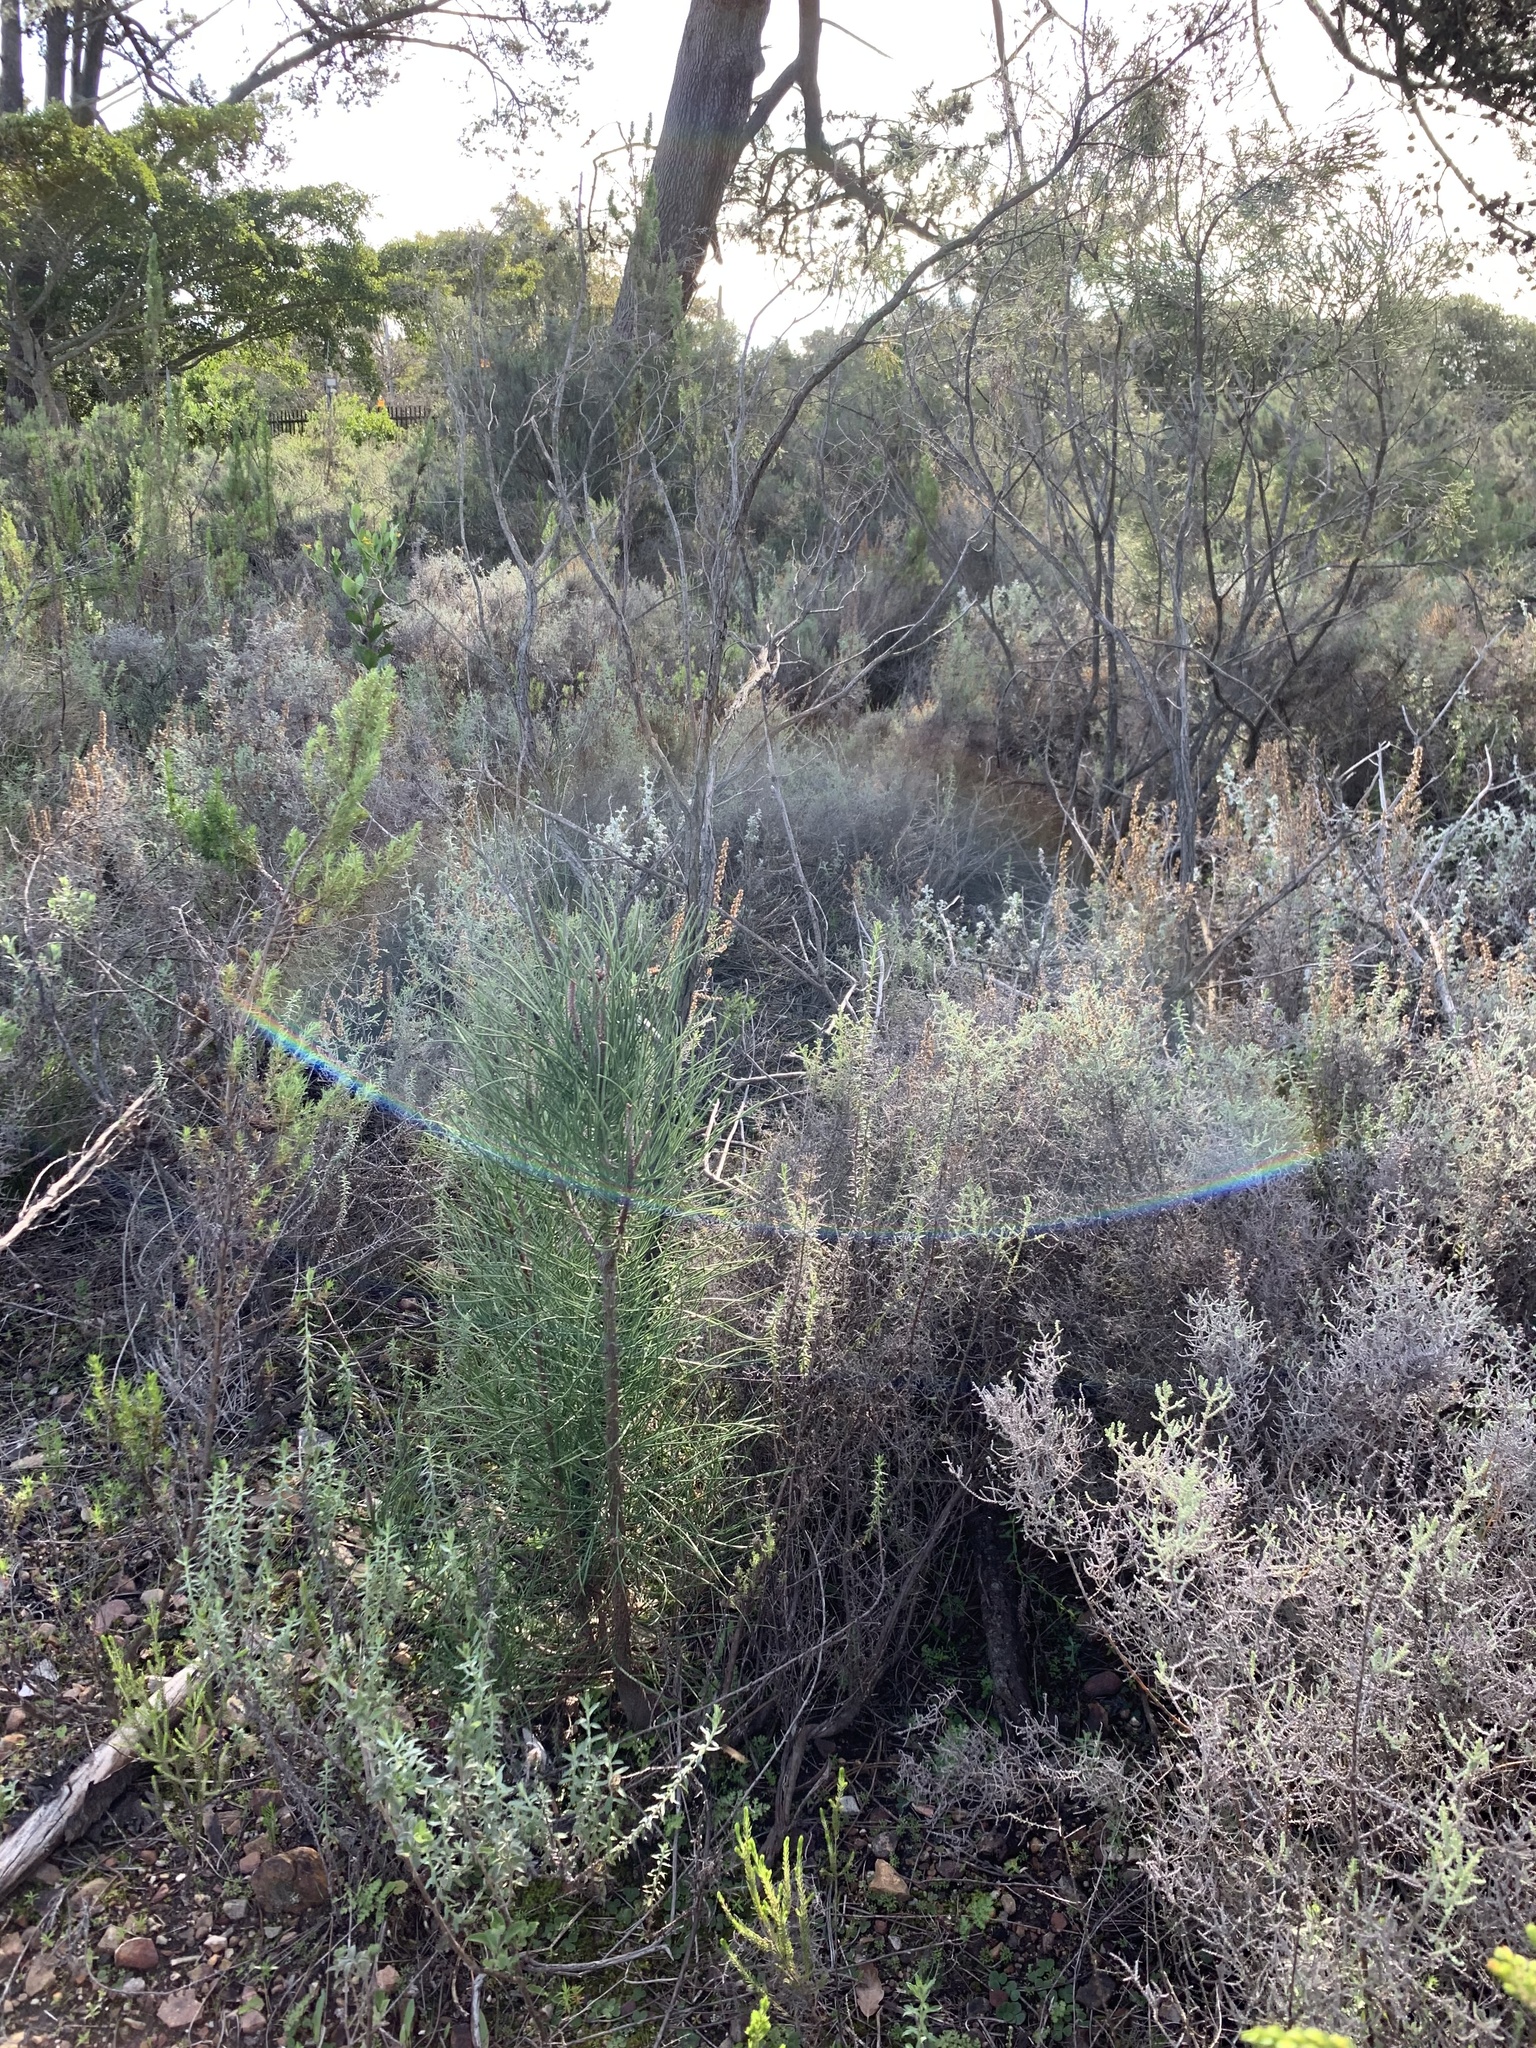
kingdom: Plantae
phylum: Tracheophyta
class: Pinopsida
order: Pinales
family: Pinaceae
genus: Pinus
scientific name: Pinus pinaster
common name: Maritime pine
